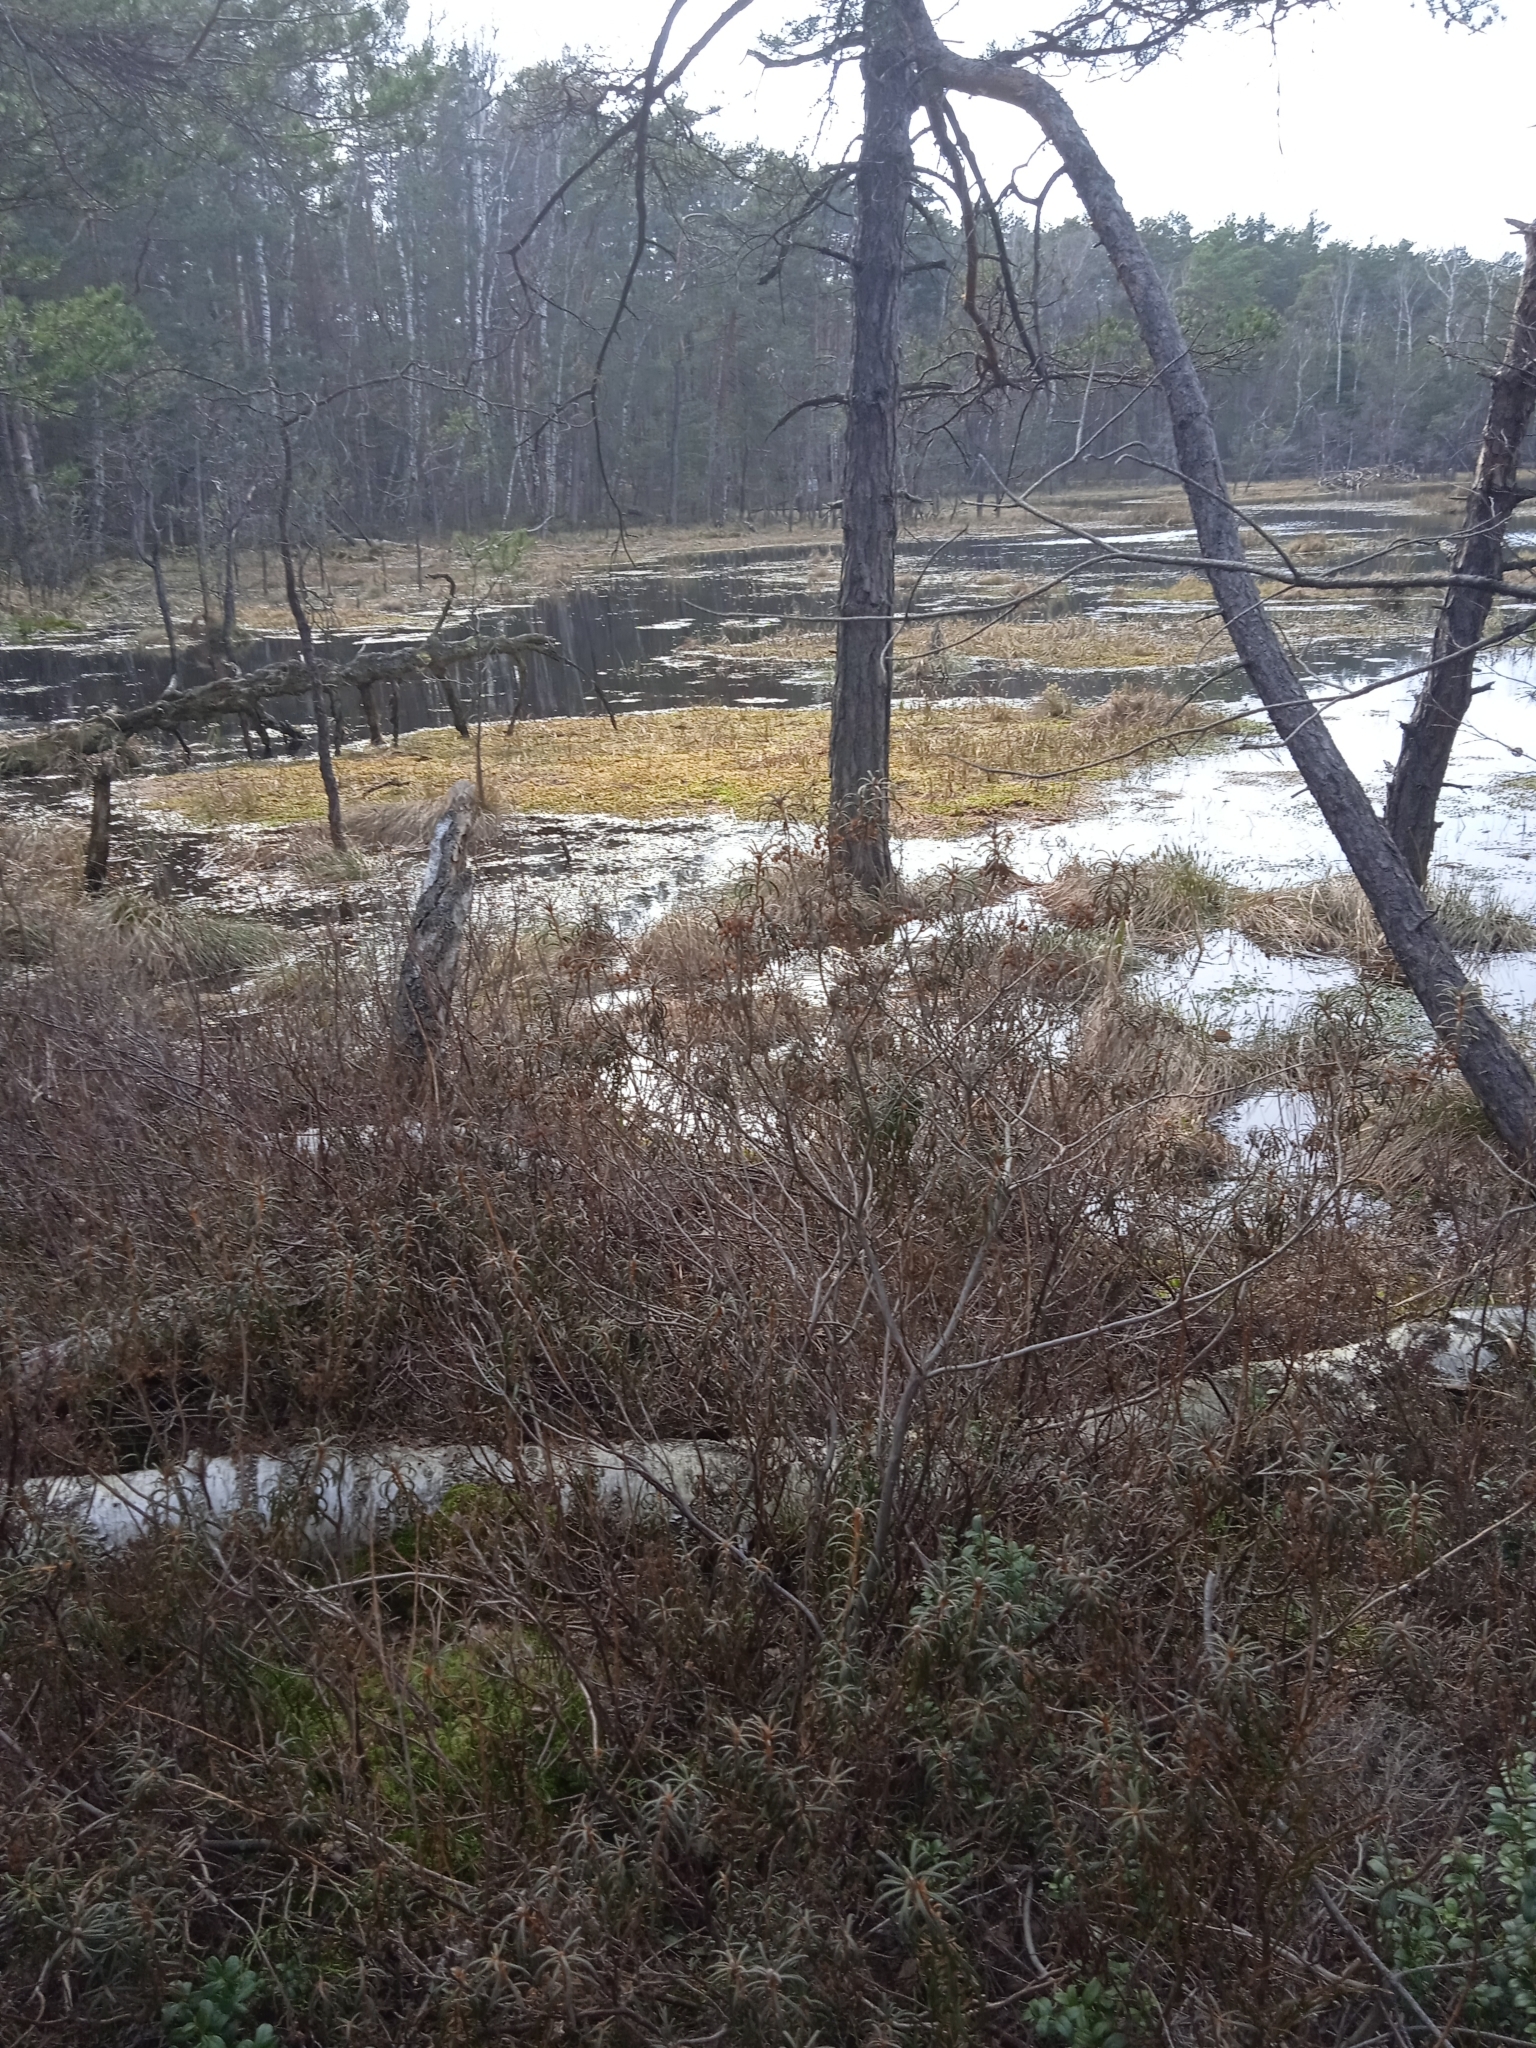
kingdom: Plantae
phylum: Tracheophyta
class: Magnoliopsida
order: Ericales
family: Ericaceae
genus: Rhododendron
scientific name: Rhododendron tomentosum
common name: Marsh labrador tea
